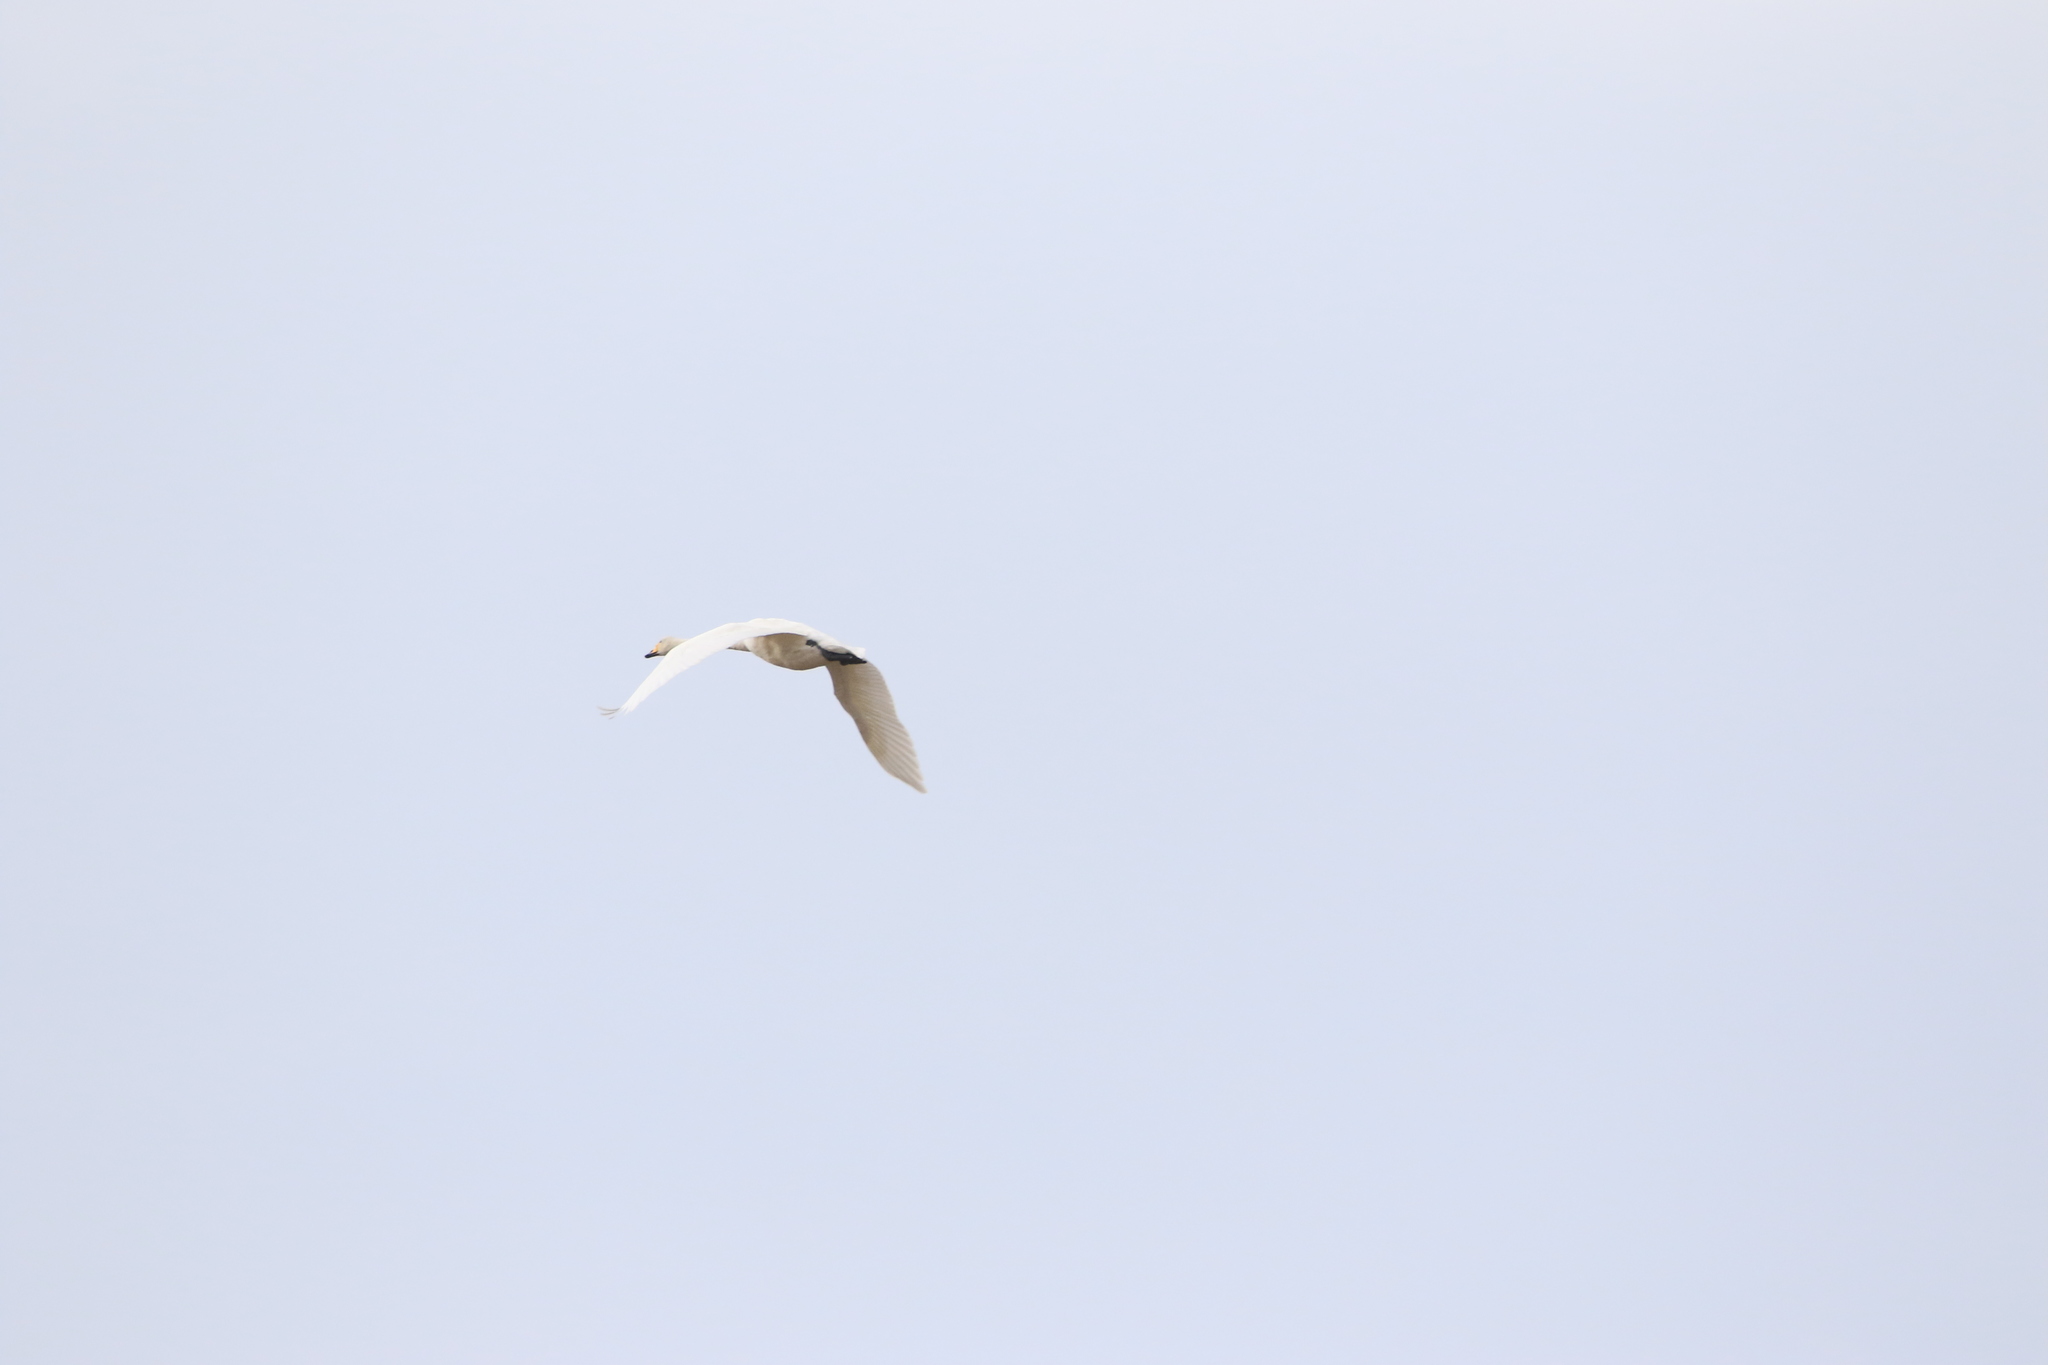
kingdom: Animalia
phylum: Chordata
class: Aves
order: Anseriformes
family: Anatidae
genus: Cygnus
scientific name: Cygnus cygnus
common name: Whooper swan
